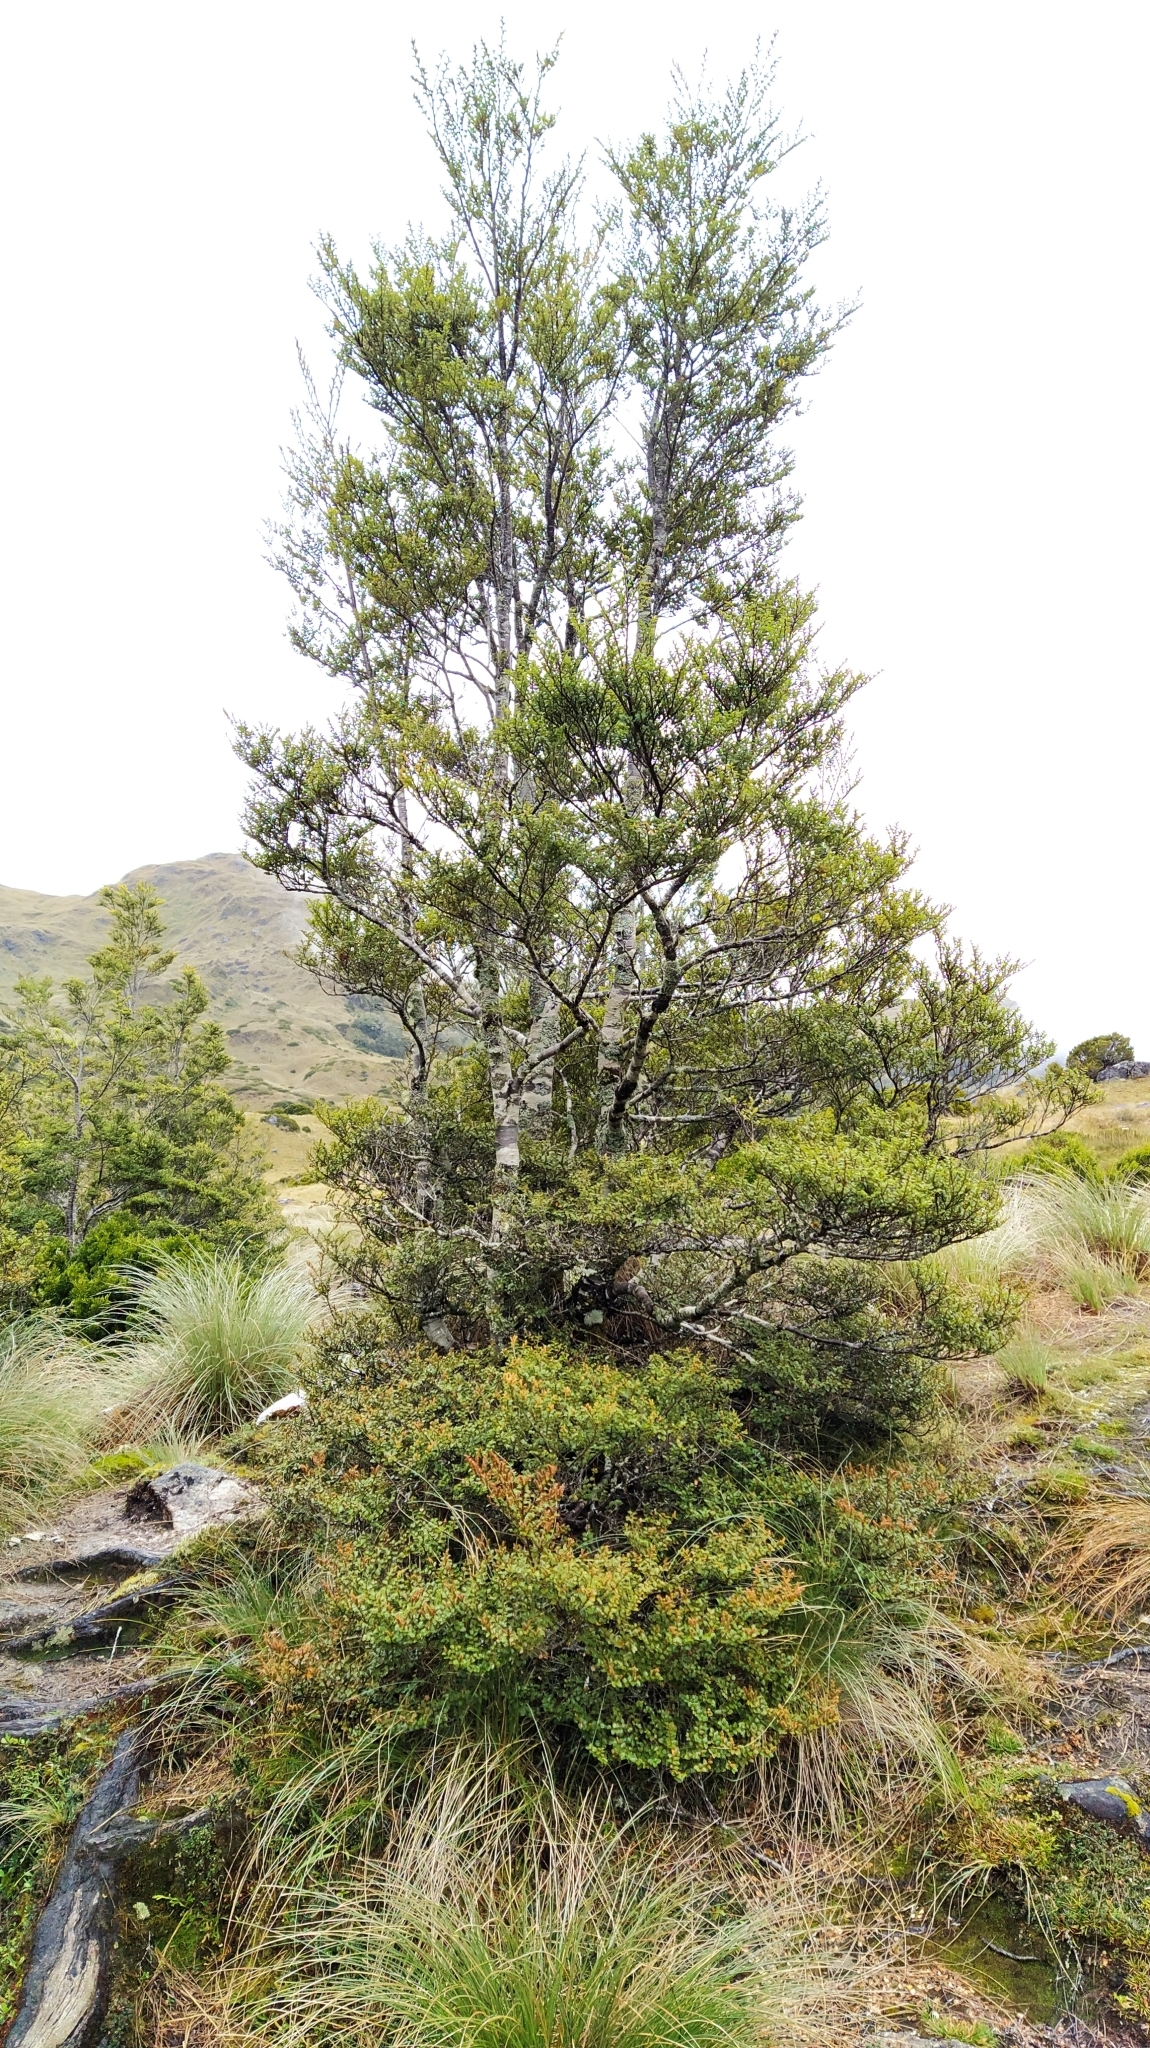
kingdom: Plantae
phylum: Tracheophyta
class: Magnoliopsida
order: Fagales
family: Nothofagaceae
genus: Nothofagus
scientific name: Nothofagus menziesii
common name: Silver beech
